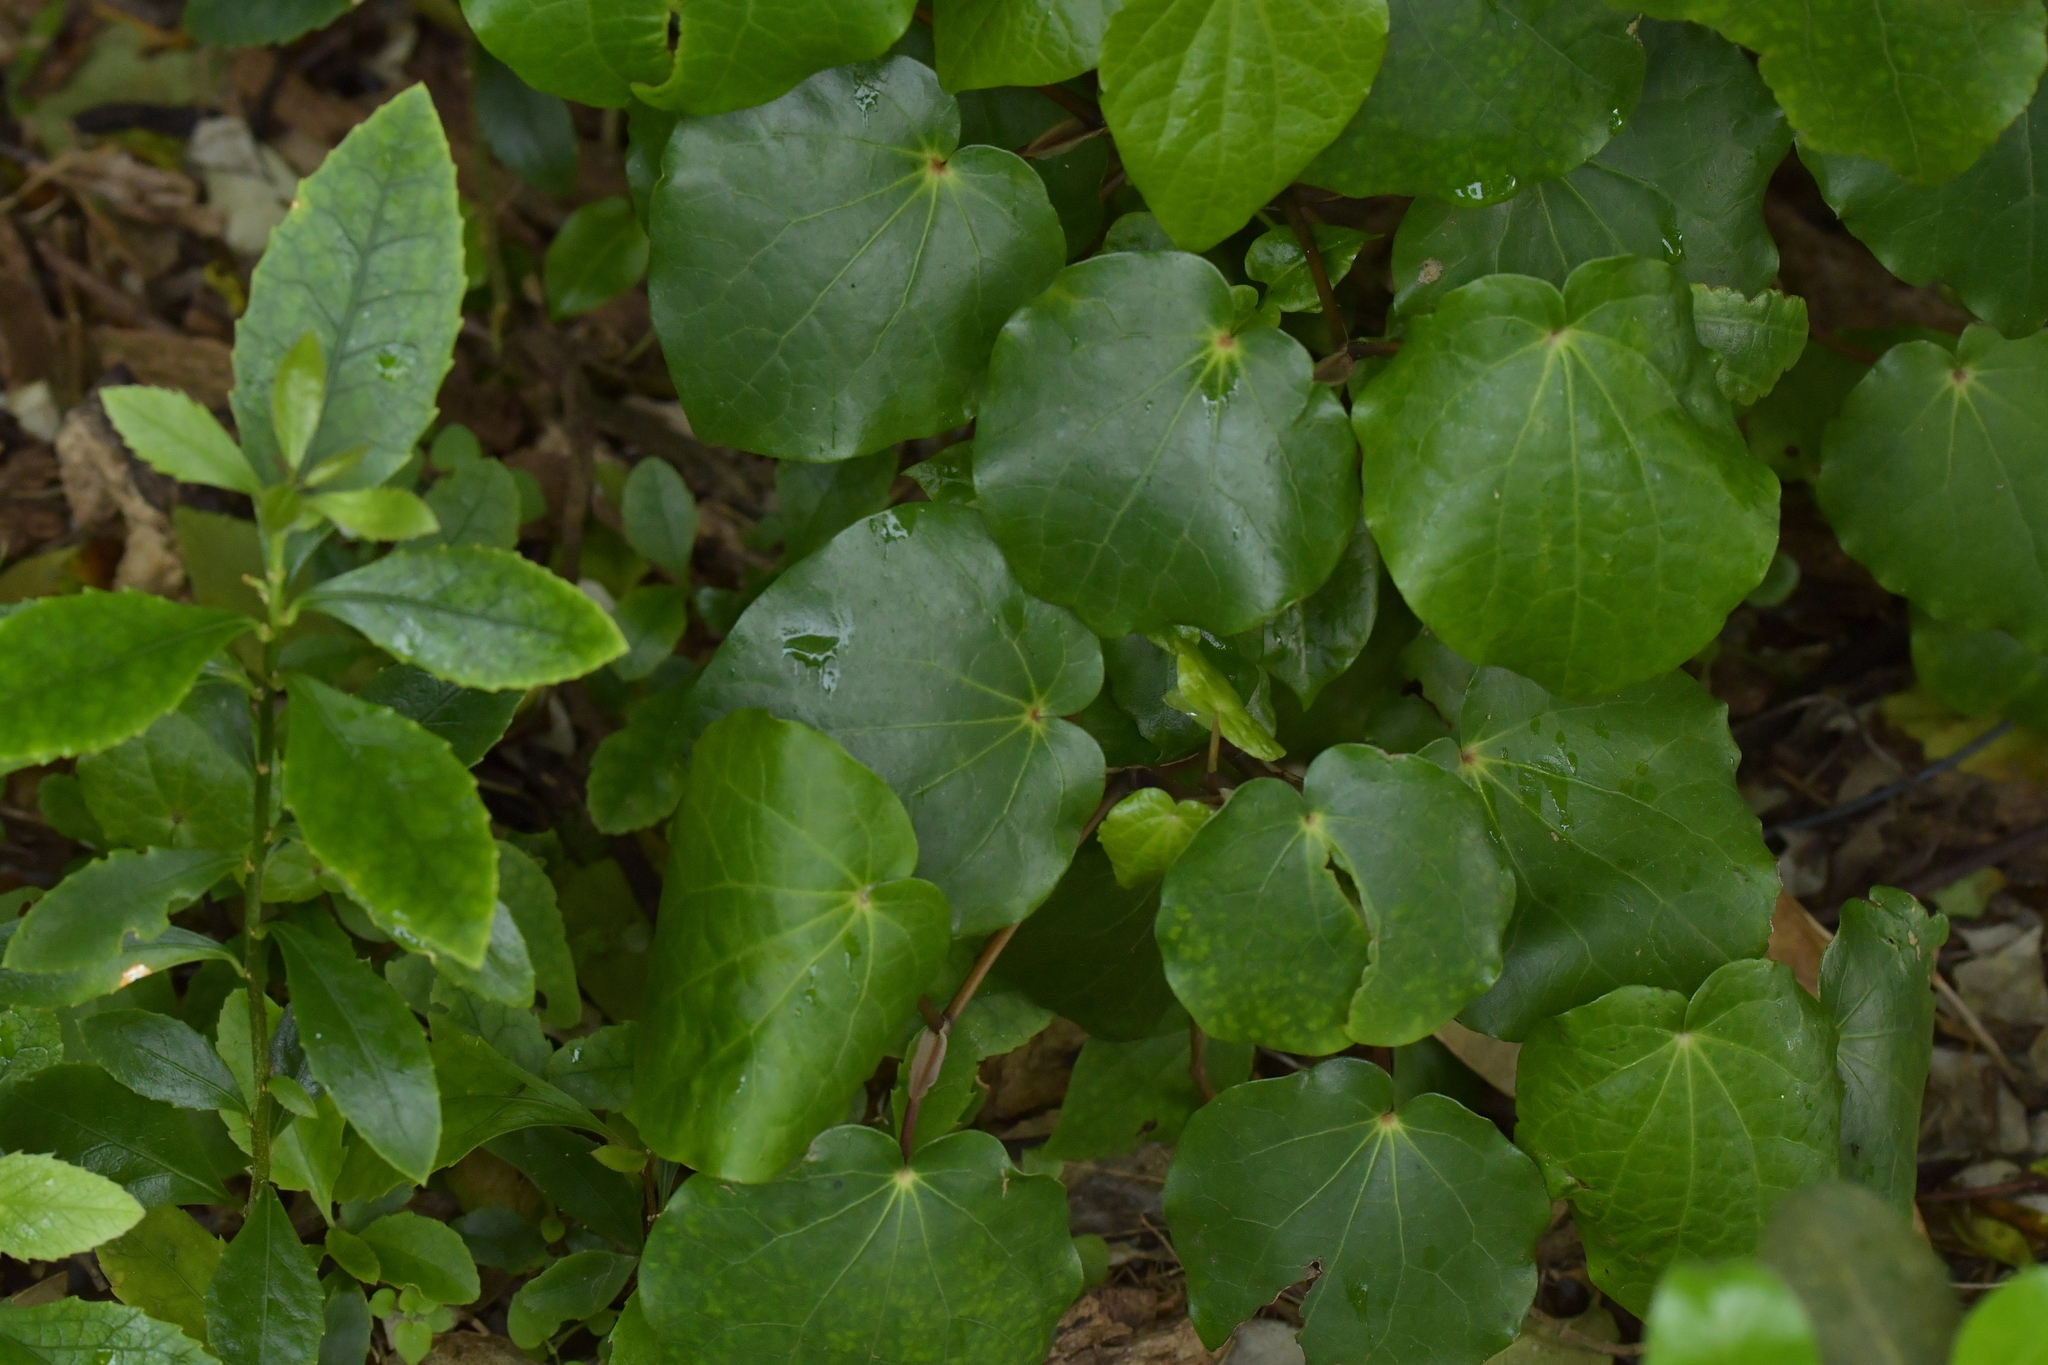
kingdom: Plantae
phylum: Tracheophyta
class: Magnoliopsida
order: Piperales
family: Piperaceae
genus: Macropiper
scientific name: Macropiper excelsum
